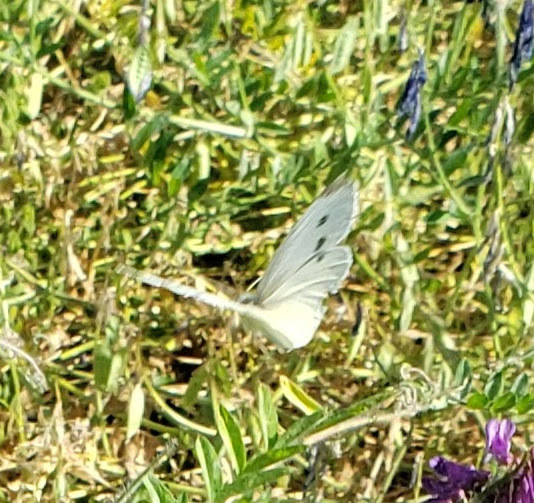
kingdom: Animalia
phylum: Arthropoda
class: Insecta
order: Lepidoptera
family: Pieridae
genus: Pieris
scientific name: Pieris rapae
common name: Small white
